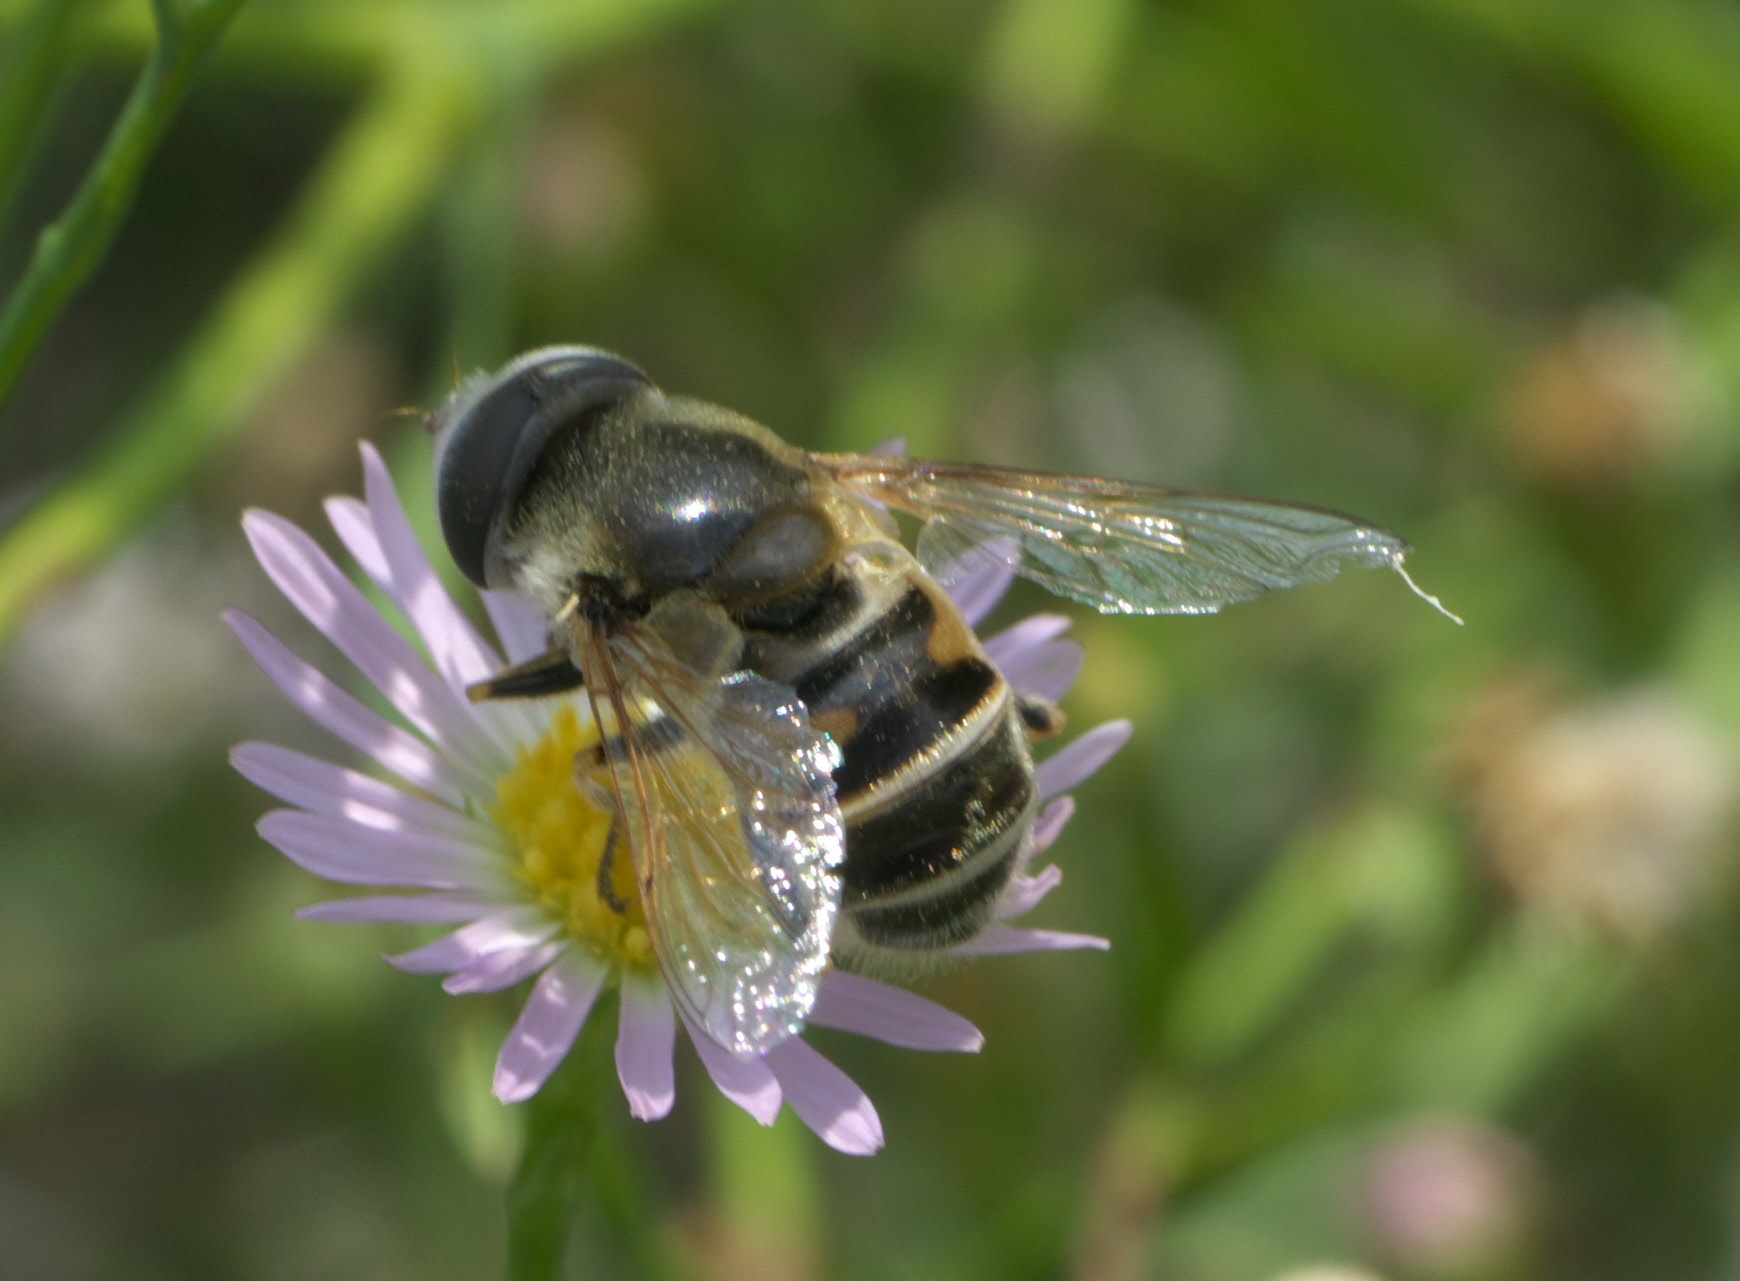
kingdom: Animalia
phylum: Arthropoda
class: Insecta
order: Diptera
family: Syrphidae
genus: Eristalis
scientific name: Eristalis stipator
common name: Yellow-shouldered drone fly
